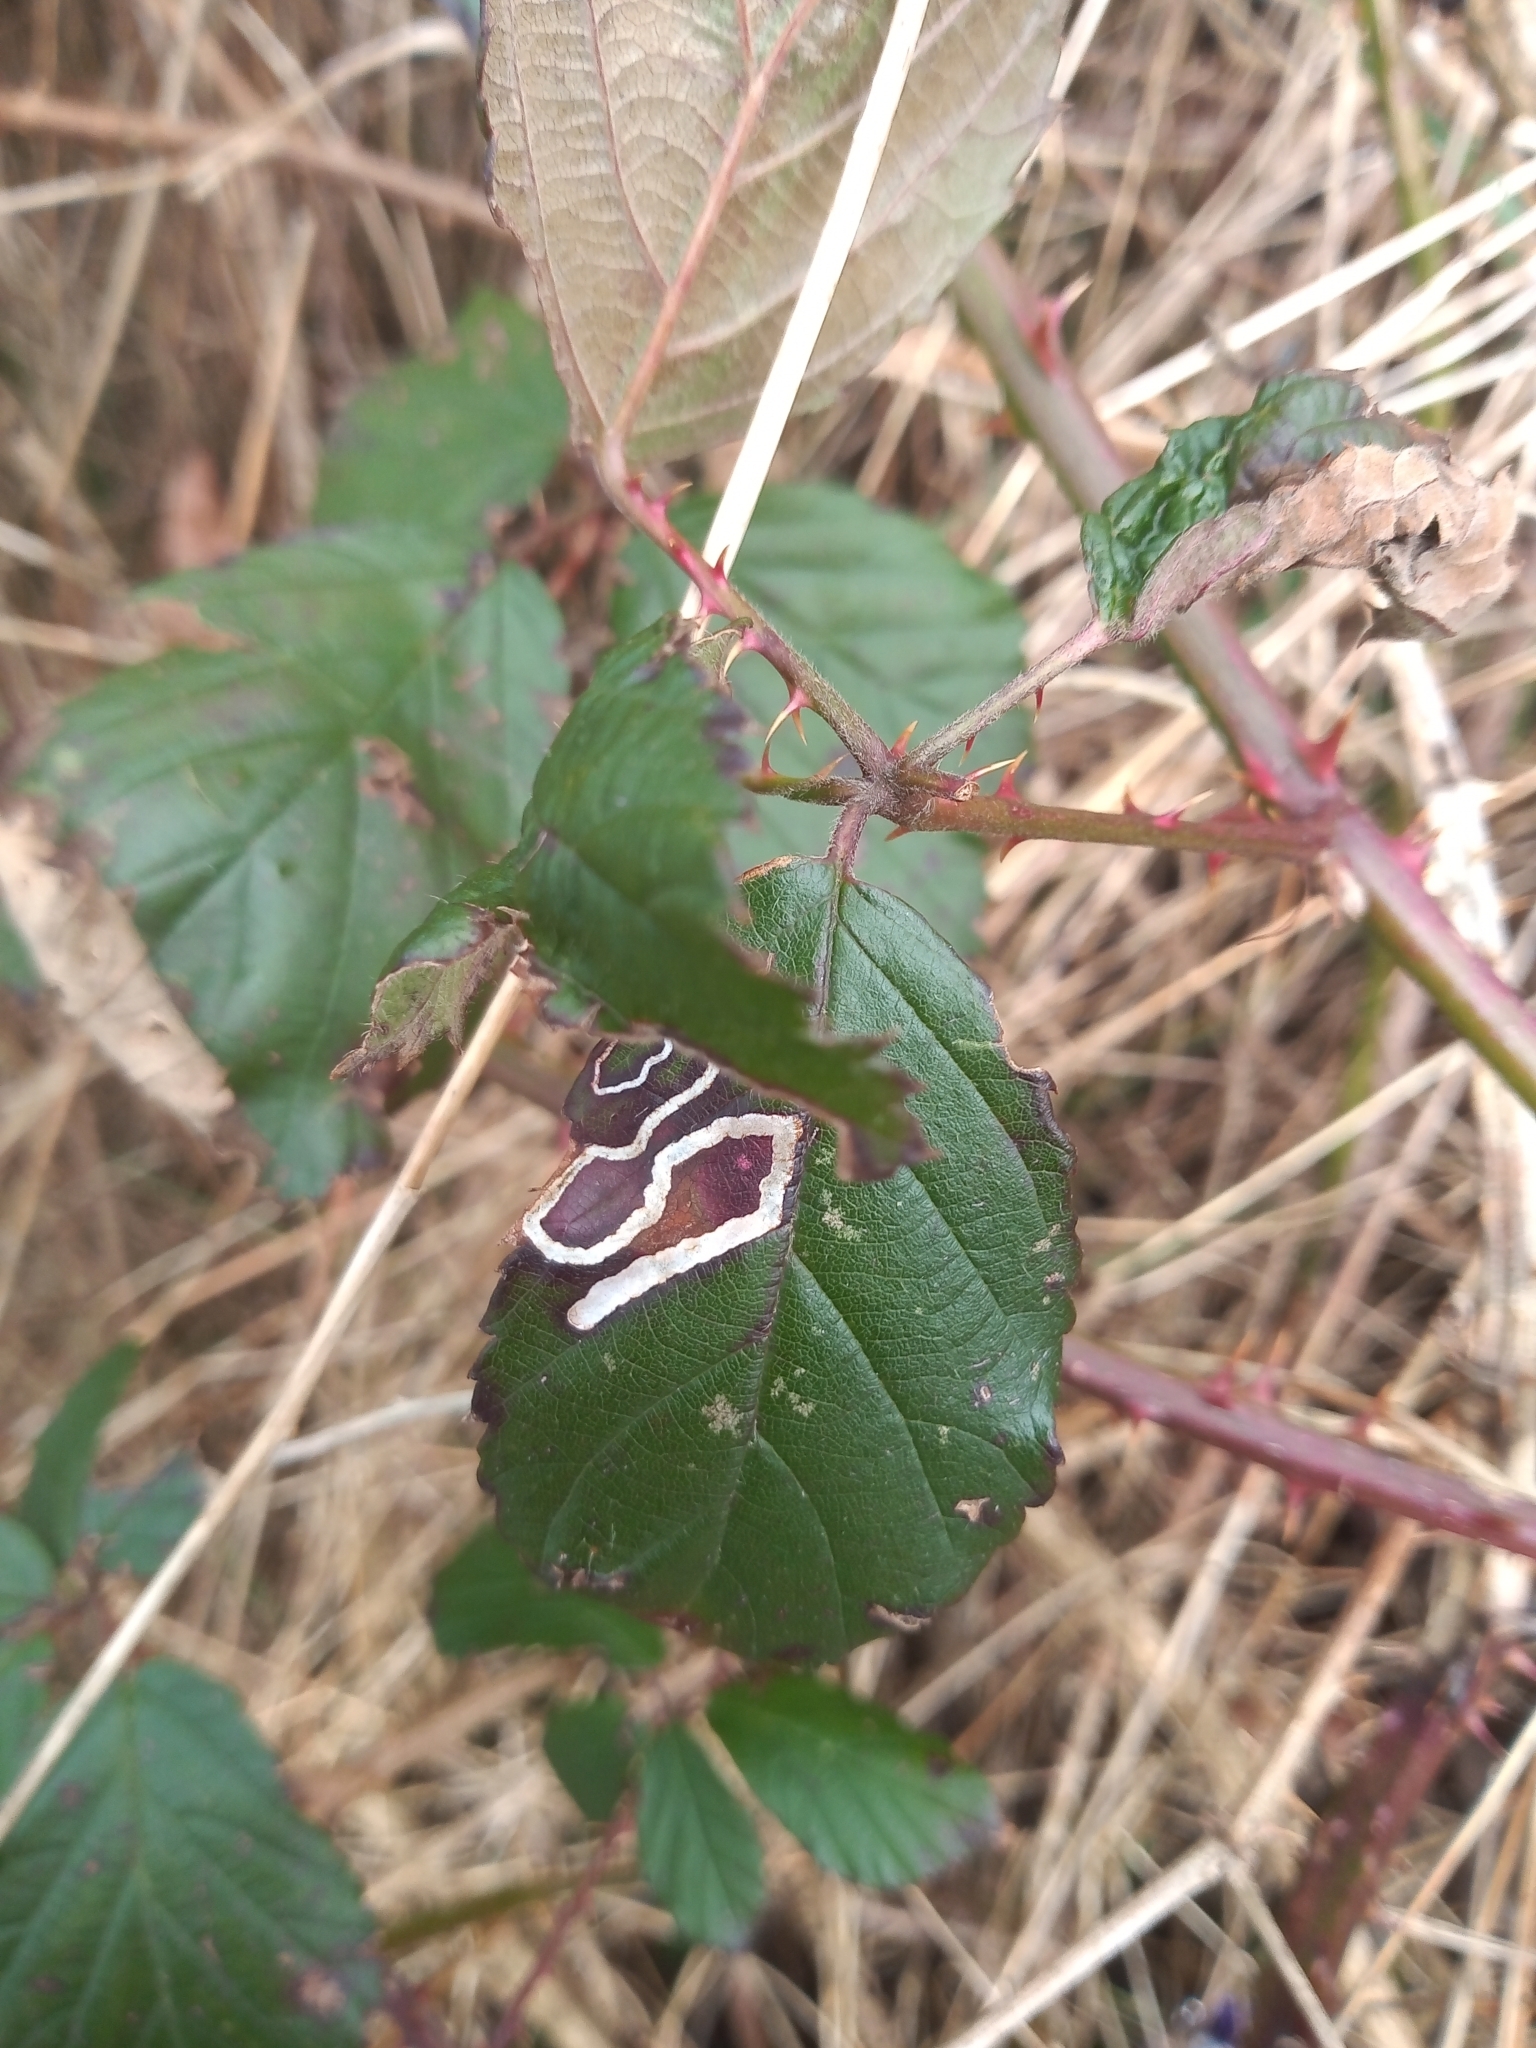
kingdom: Animalia
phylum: Arthropoda
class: Insecta
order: Lepidoptera
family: Nepticulidae
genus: Stigmella
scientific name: Stigmella aurella
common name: Golden pigmy
